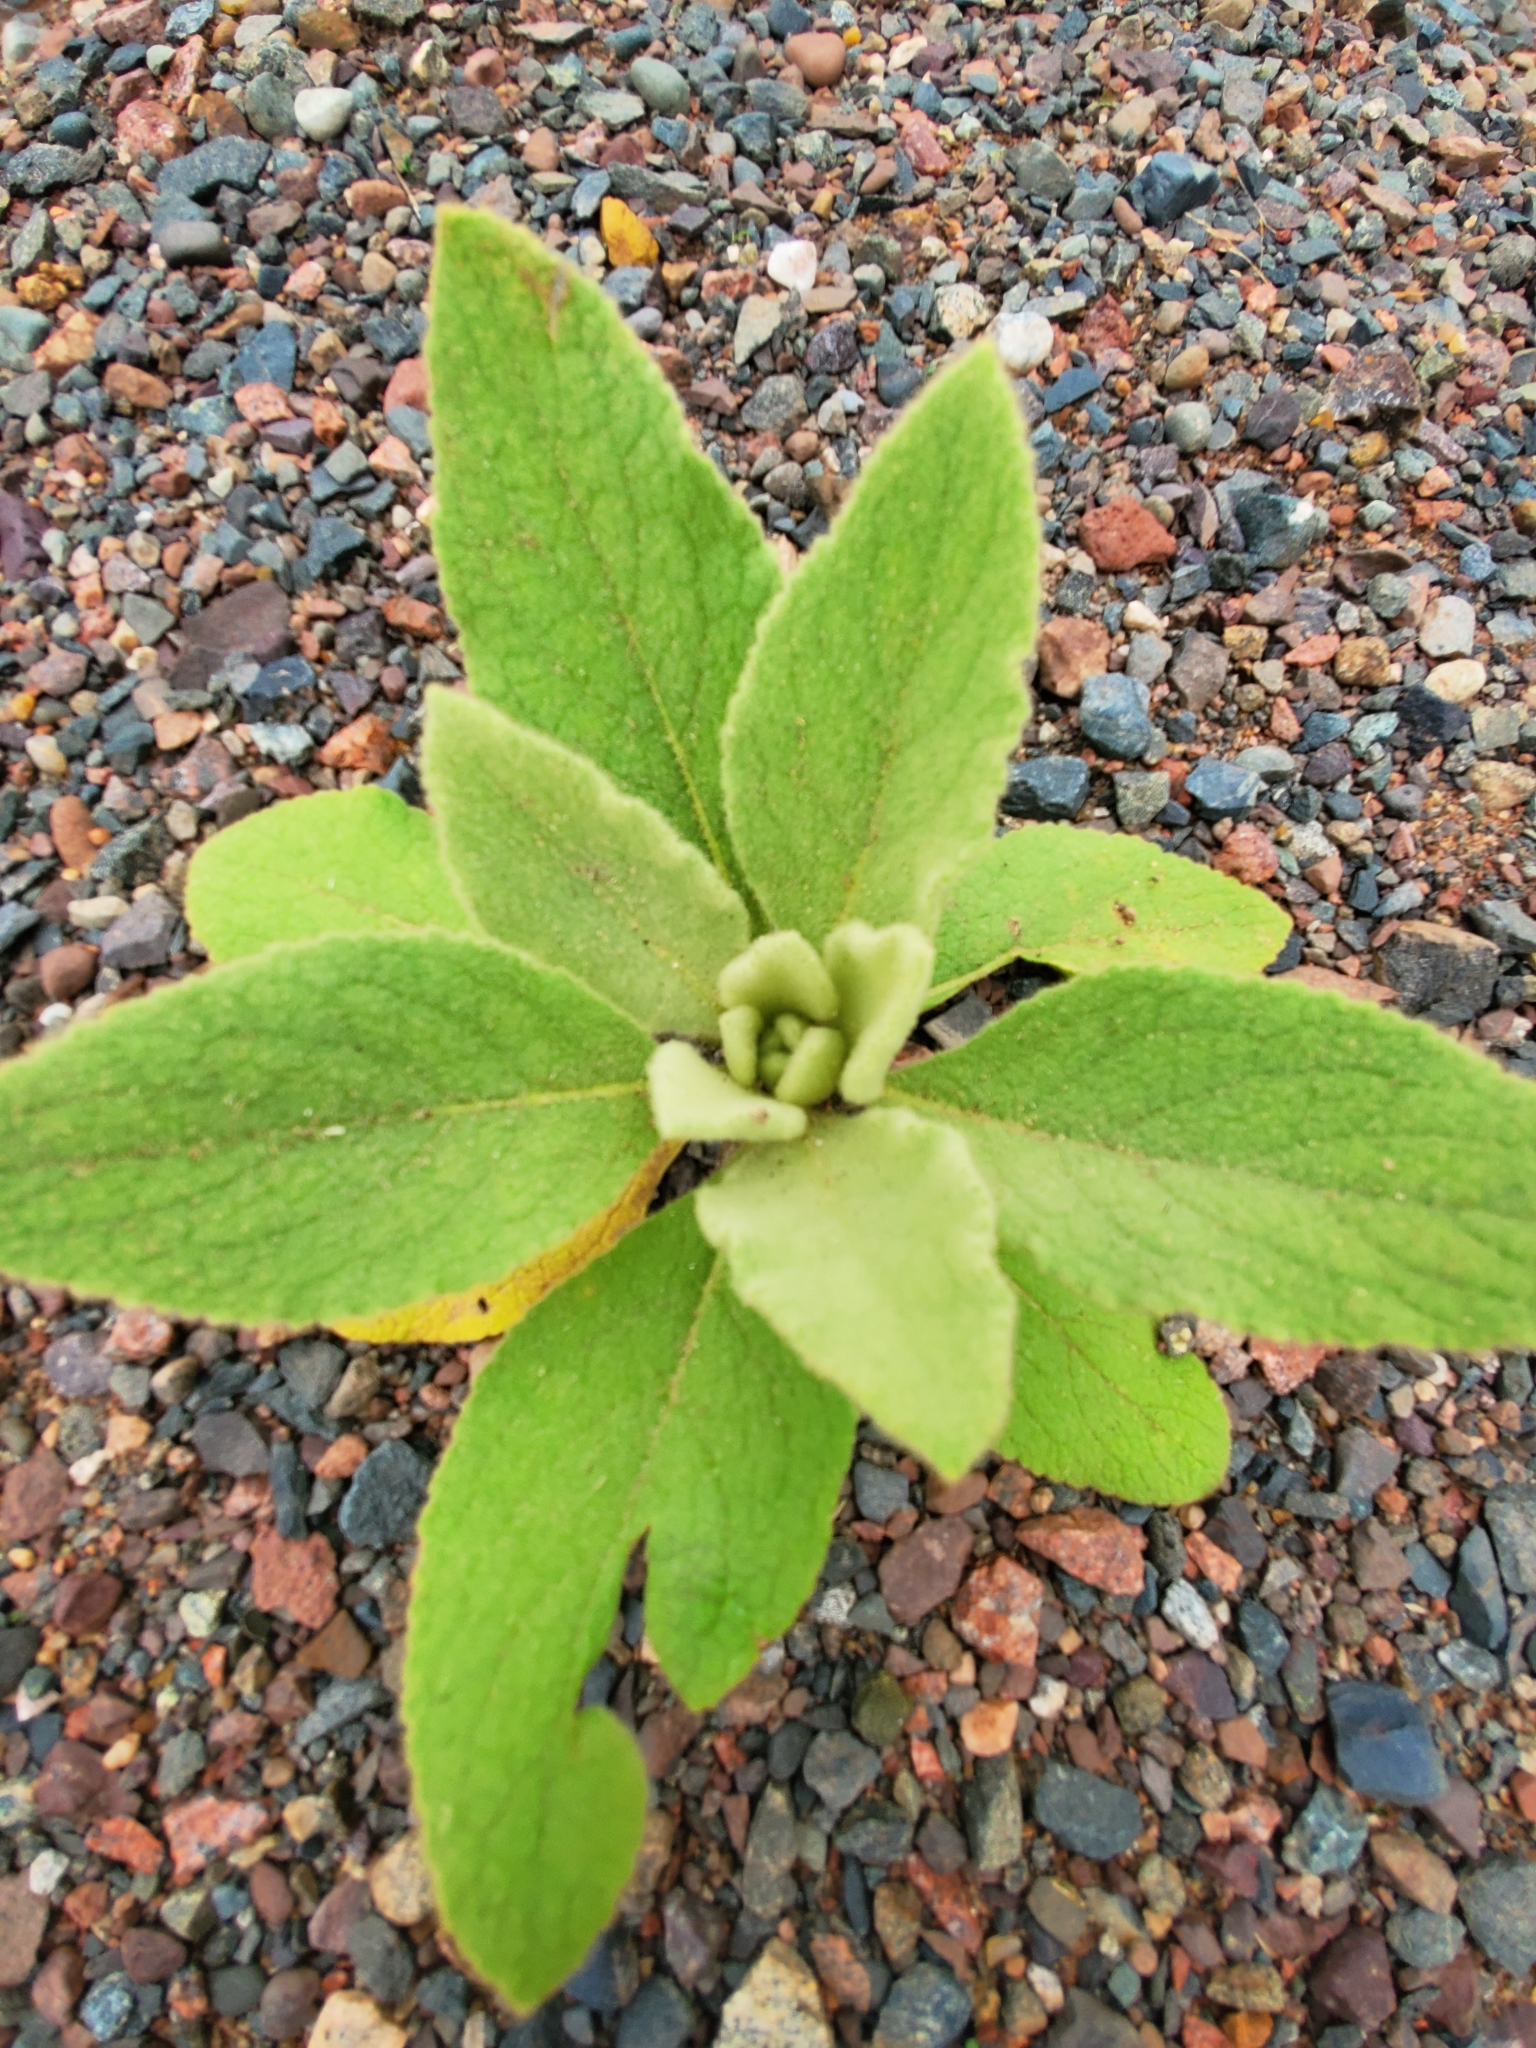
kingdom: Plantae
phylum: Tracheophyta
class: Magnoliopsida
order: Lamiales
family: Scrophulariaceae
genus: Verbascum
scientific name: Verbascum thapsus
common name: Common mullein
